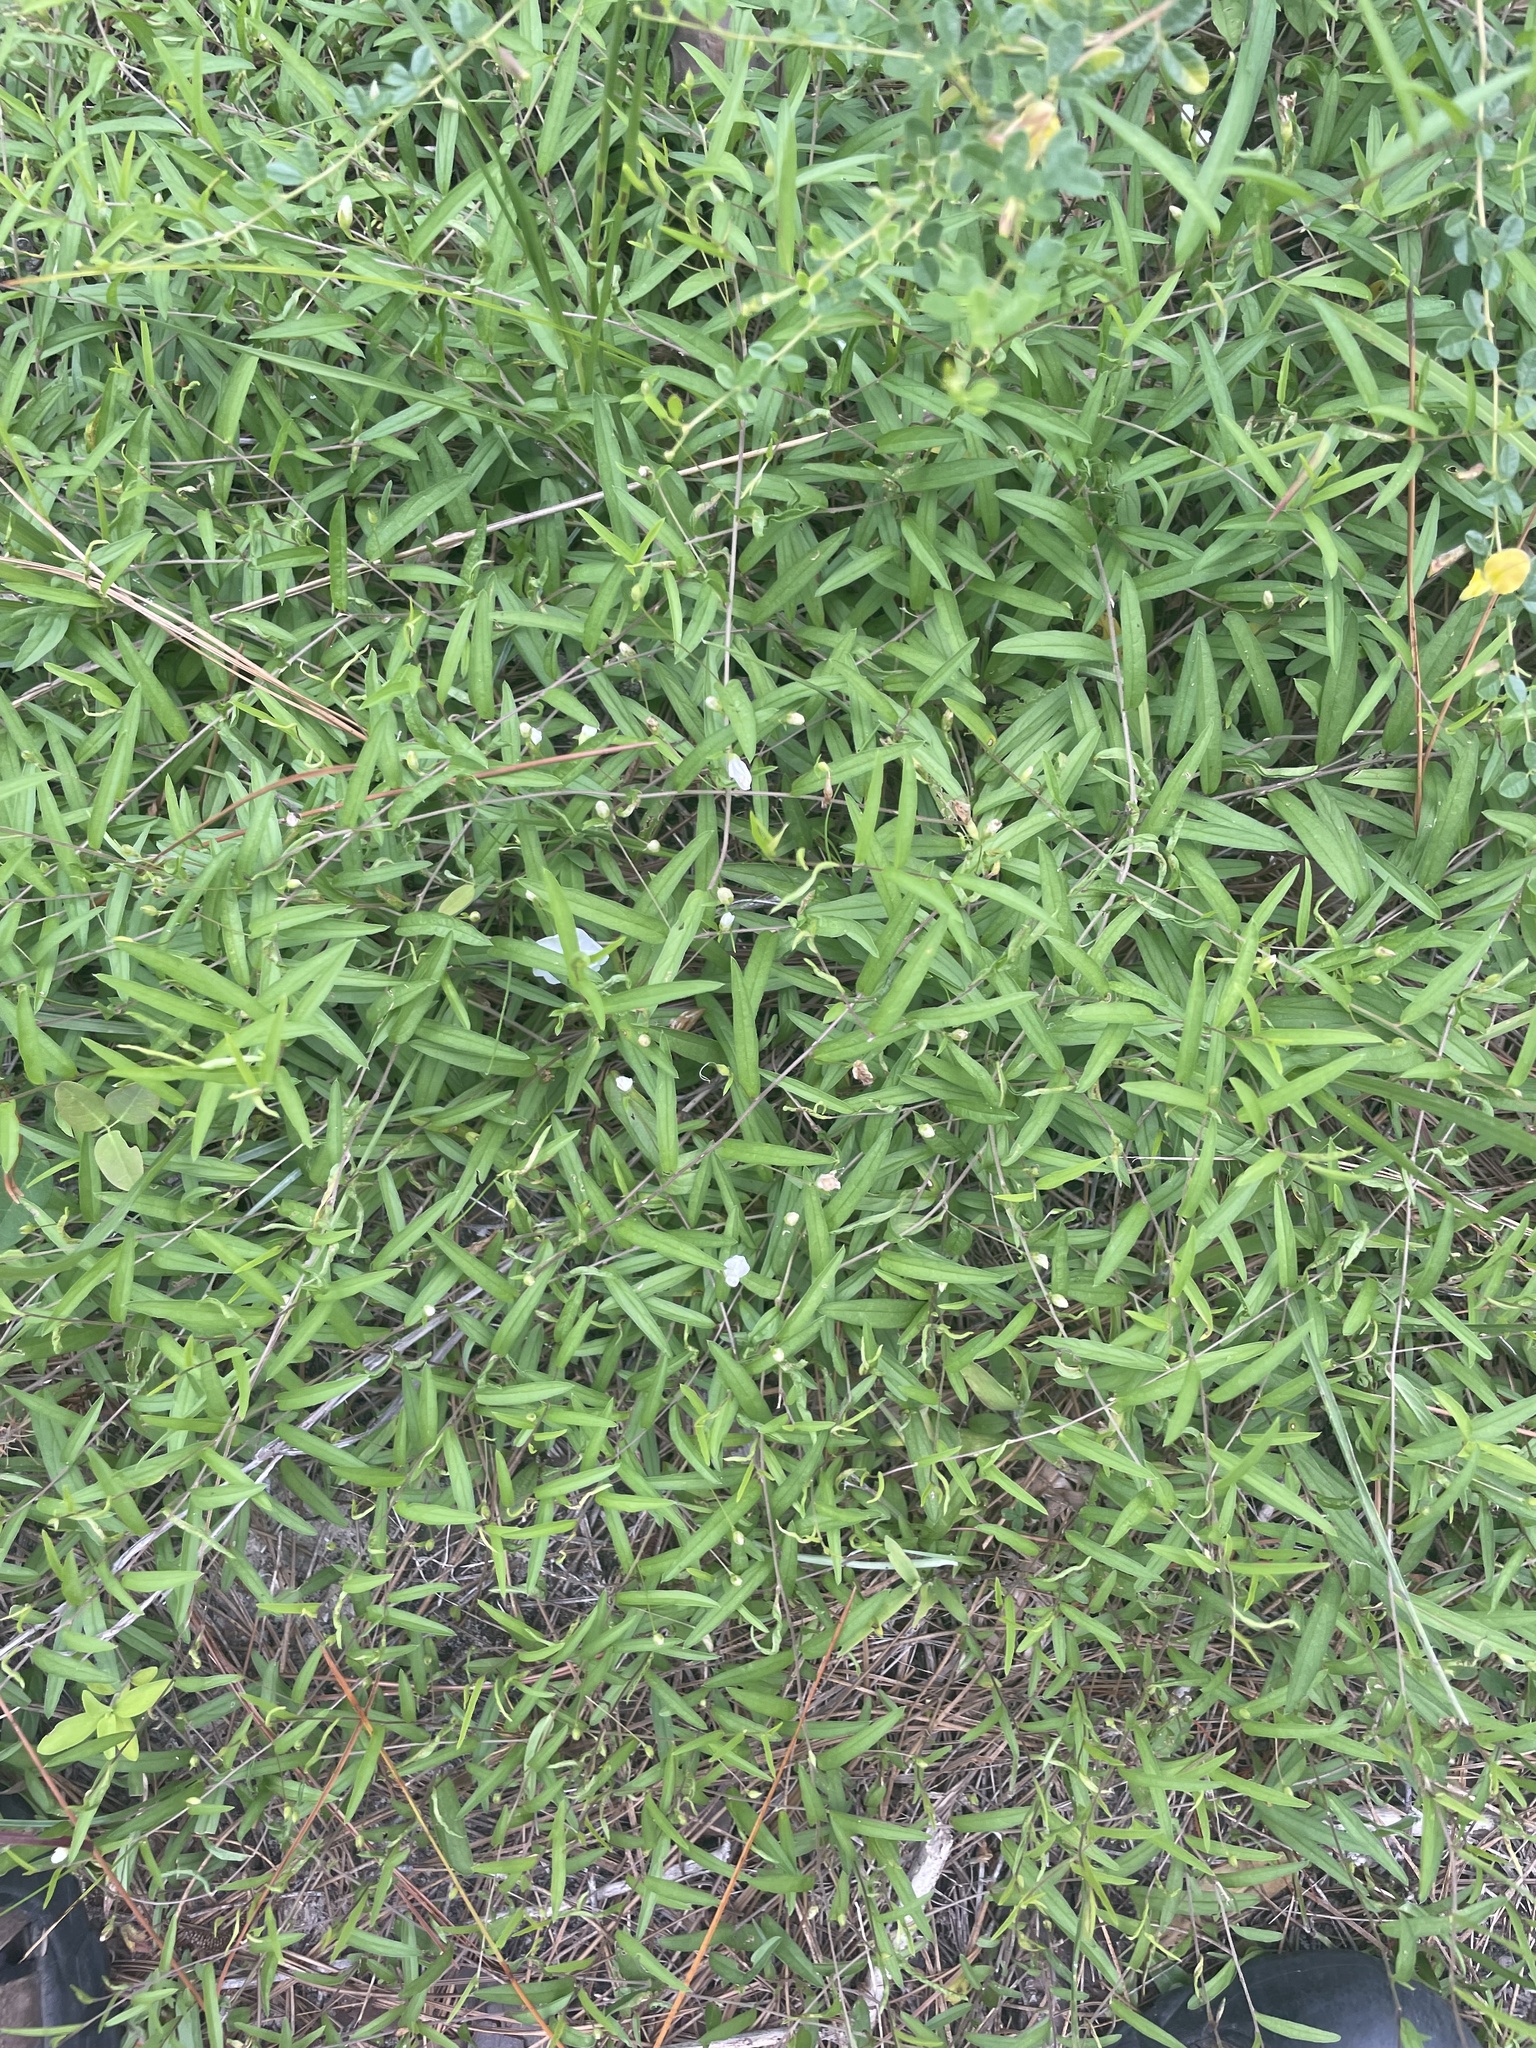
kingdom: Plantae
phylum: Tracheophyta
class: Magnoliopsida
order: Solanales
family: Convolvulaceae
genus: Stylisma
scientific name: Stylisma patens
